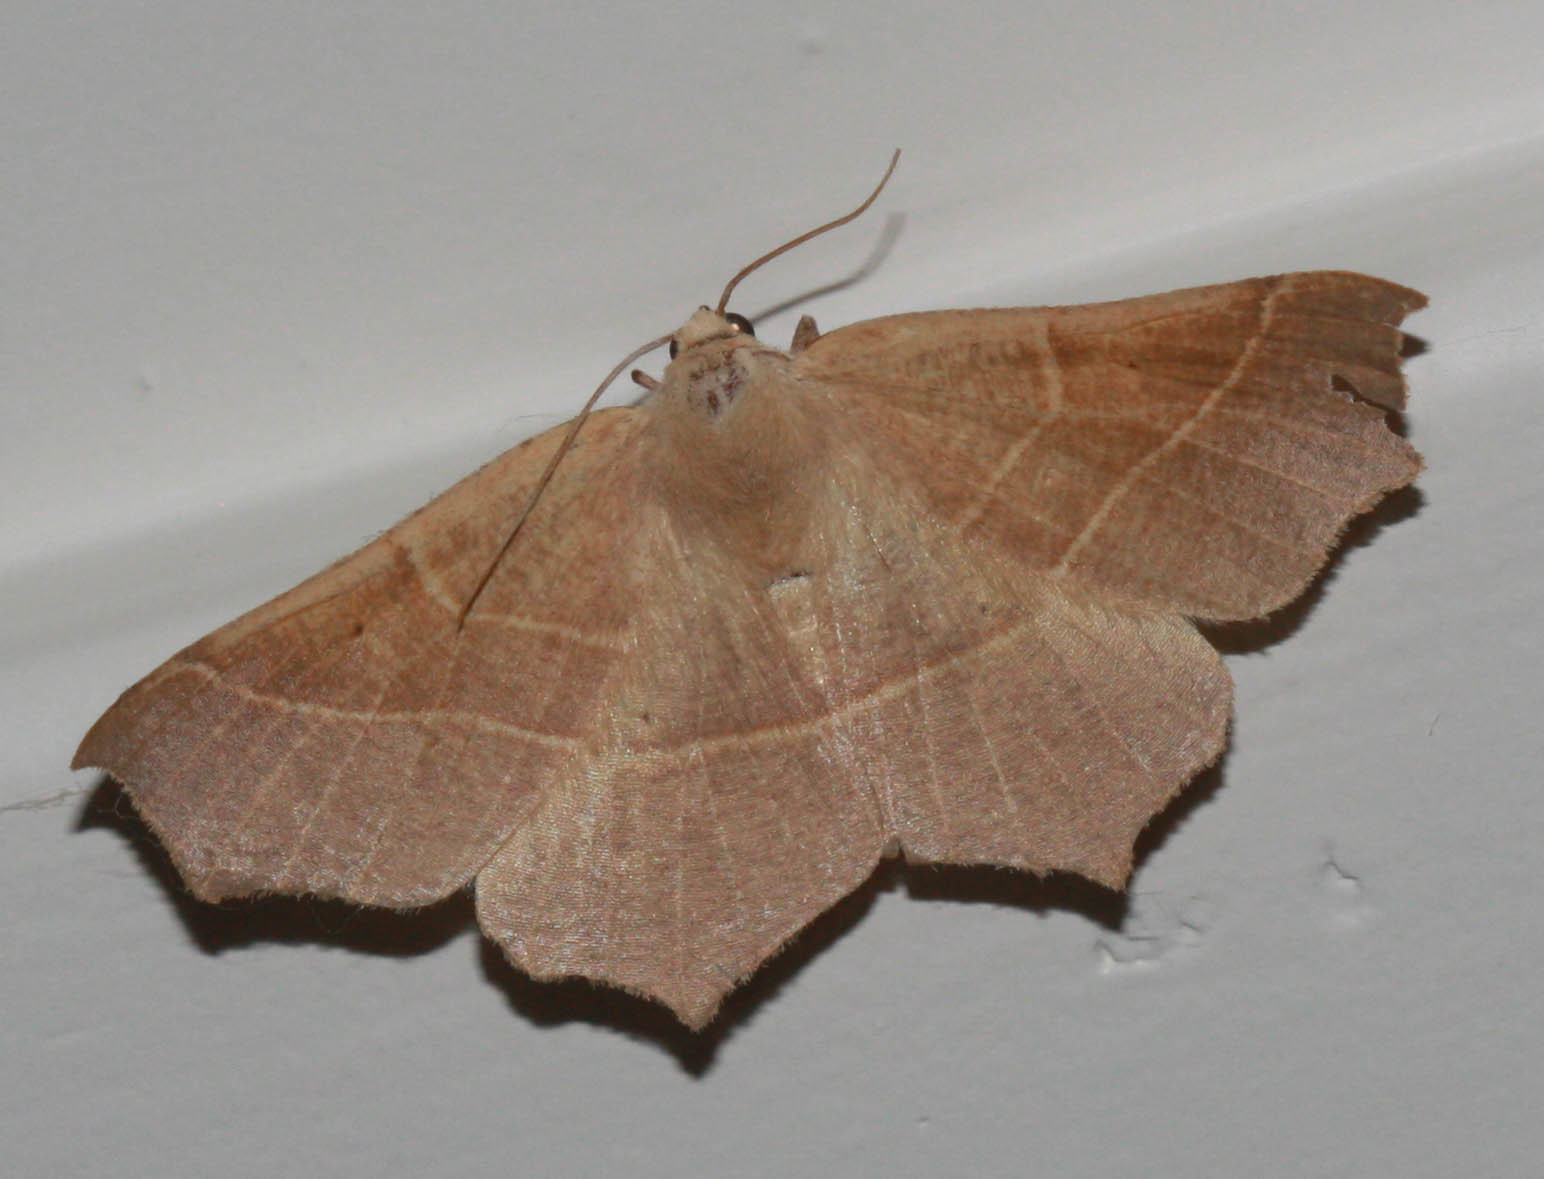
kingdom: Animalia
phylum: Arthropoda
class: Insecta
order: Lepidoptera
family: Geometridae
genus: Tetracis
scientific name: Tetracis cervinaria
